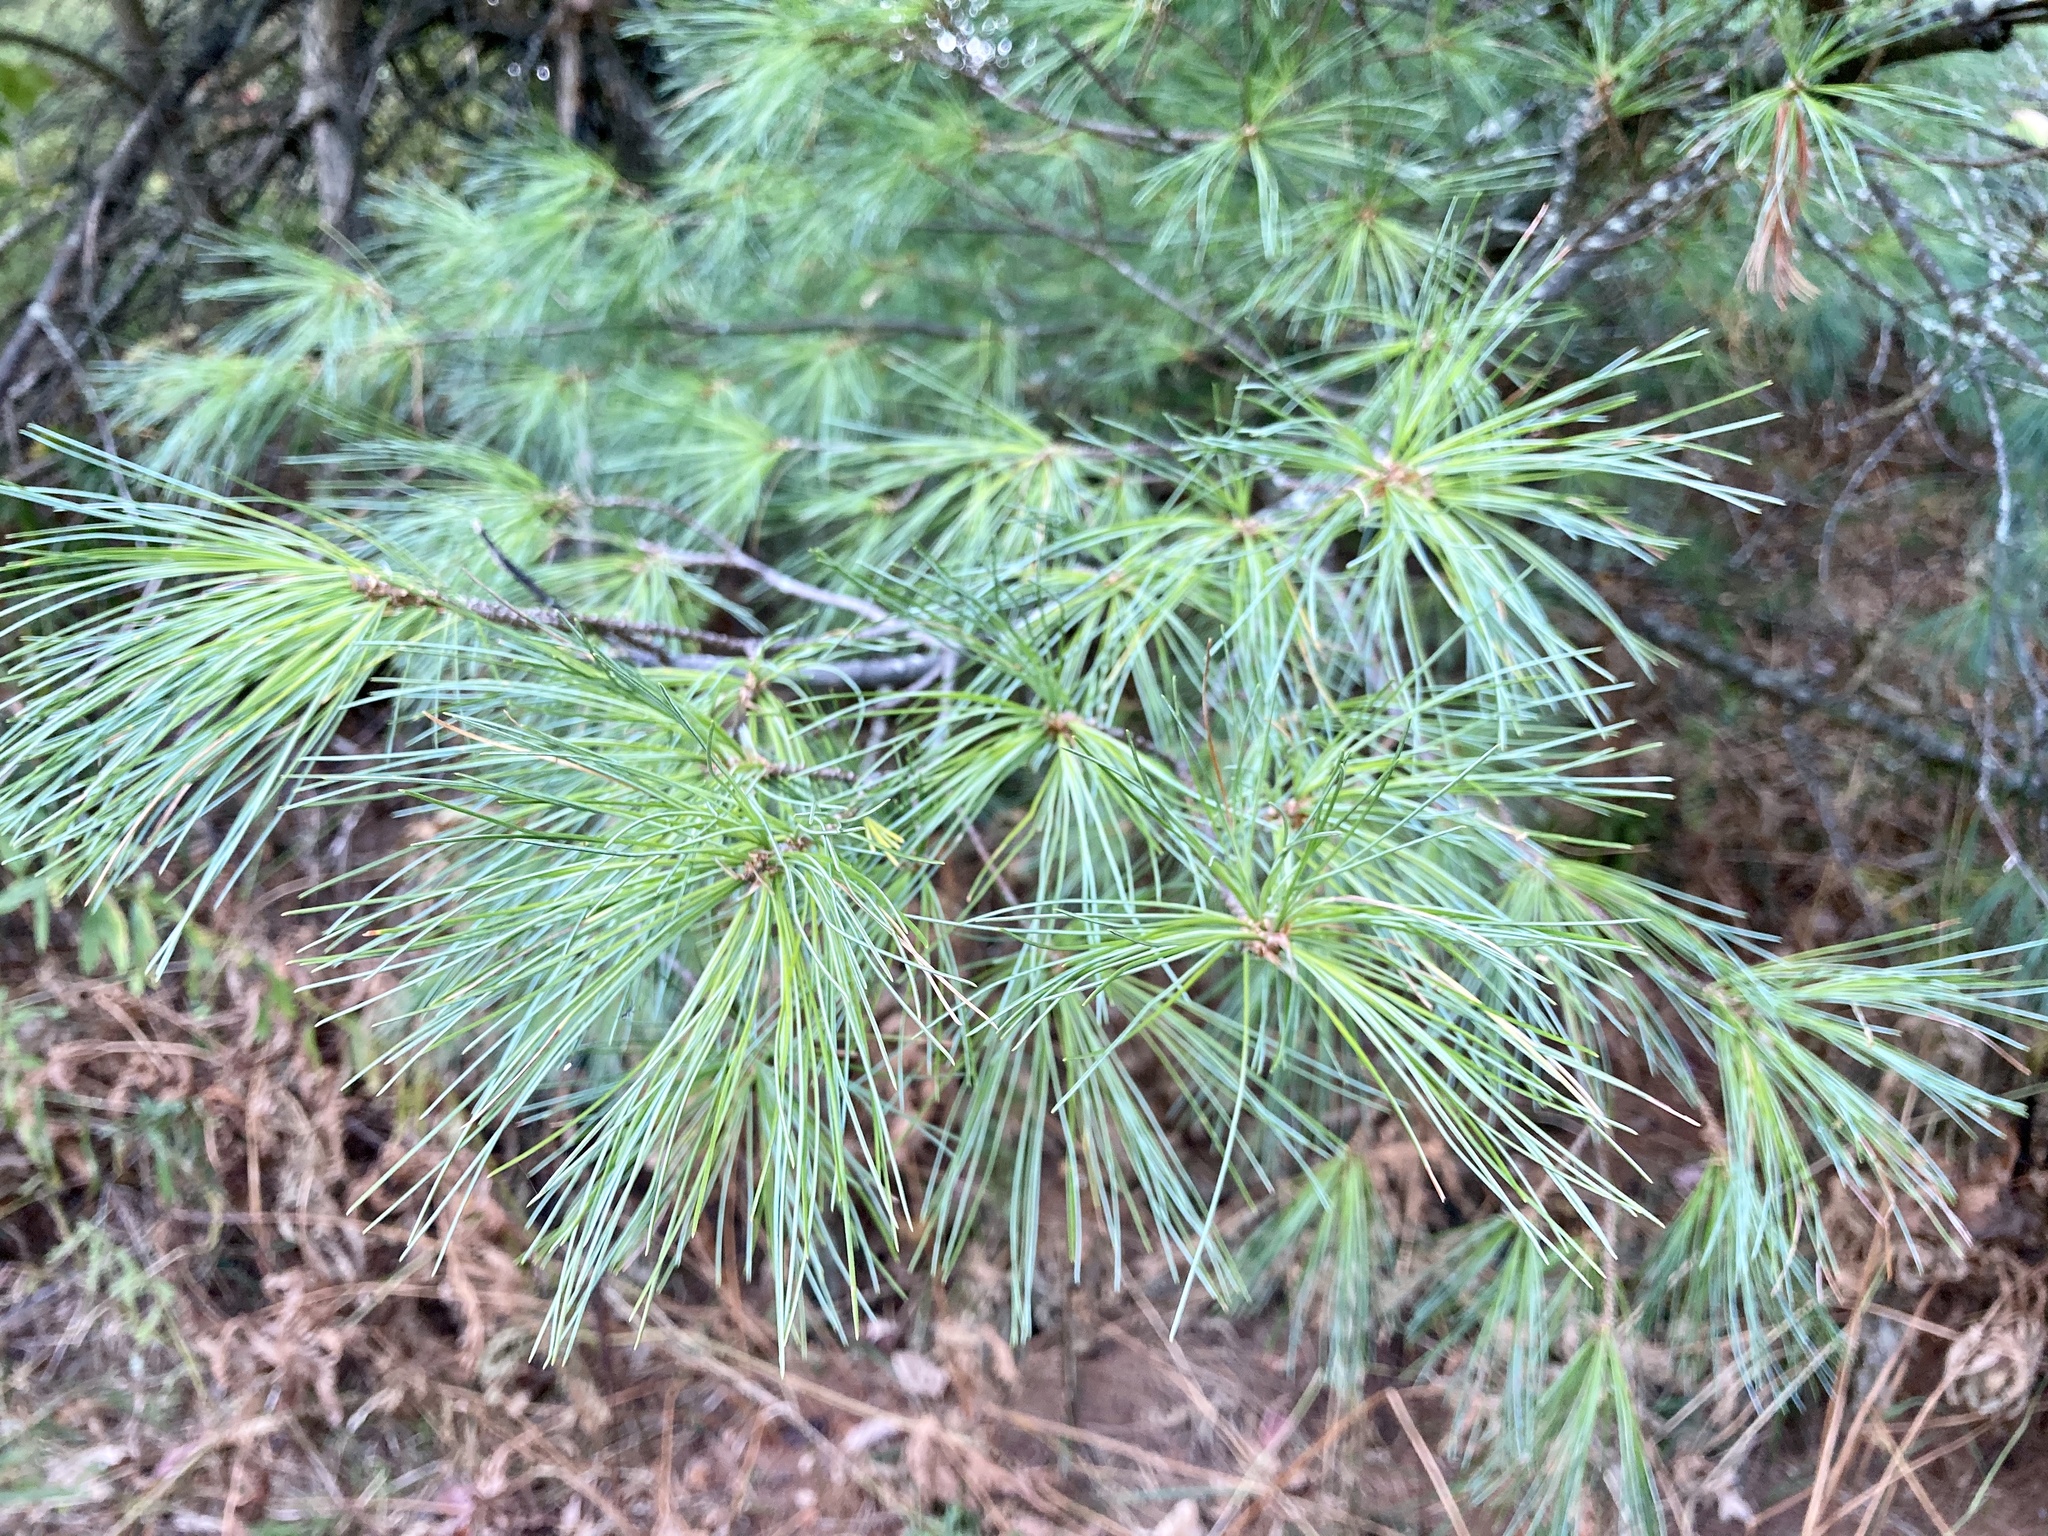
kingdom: Plantae
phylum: Tracheophyta
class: Pinopsida
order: Pinales
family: Pinaceae
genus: Pinus
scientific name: Pinus strobus
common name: Weymouth pine
